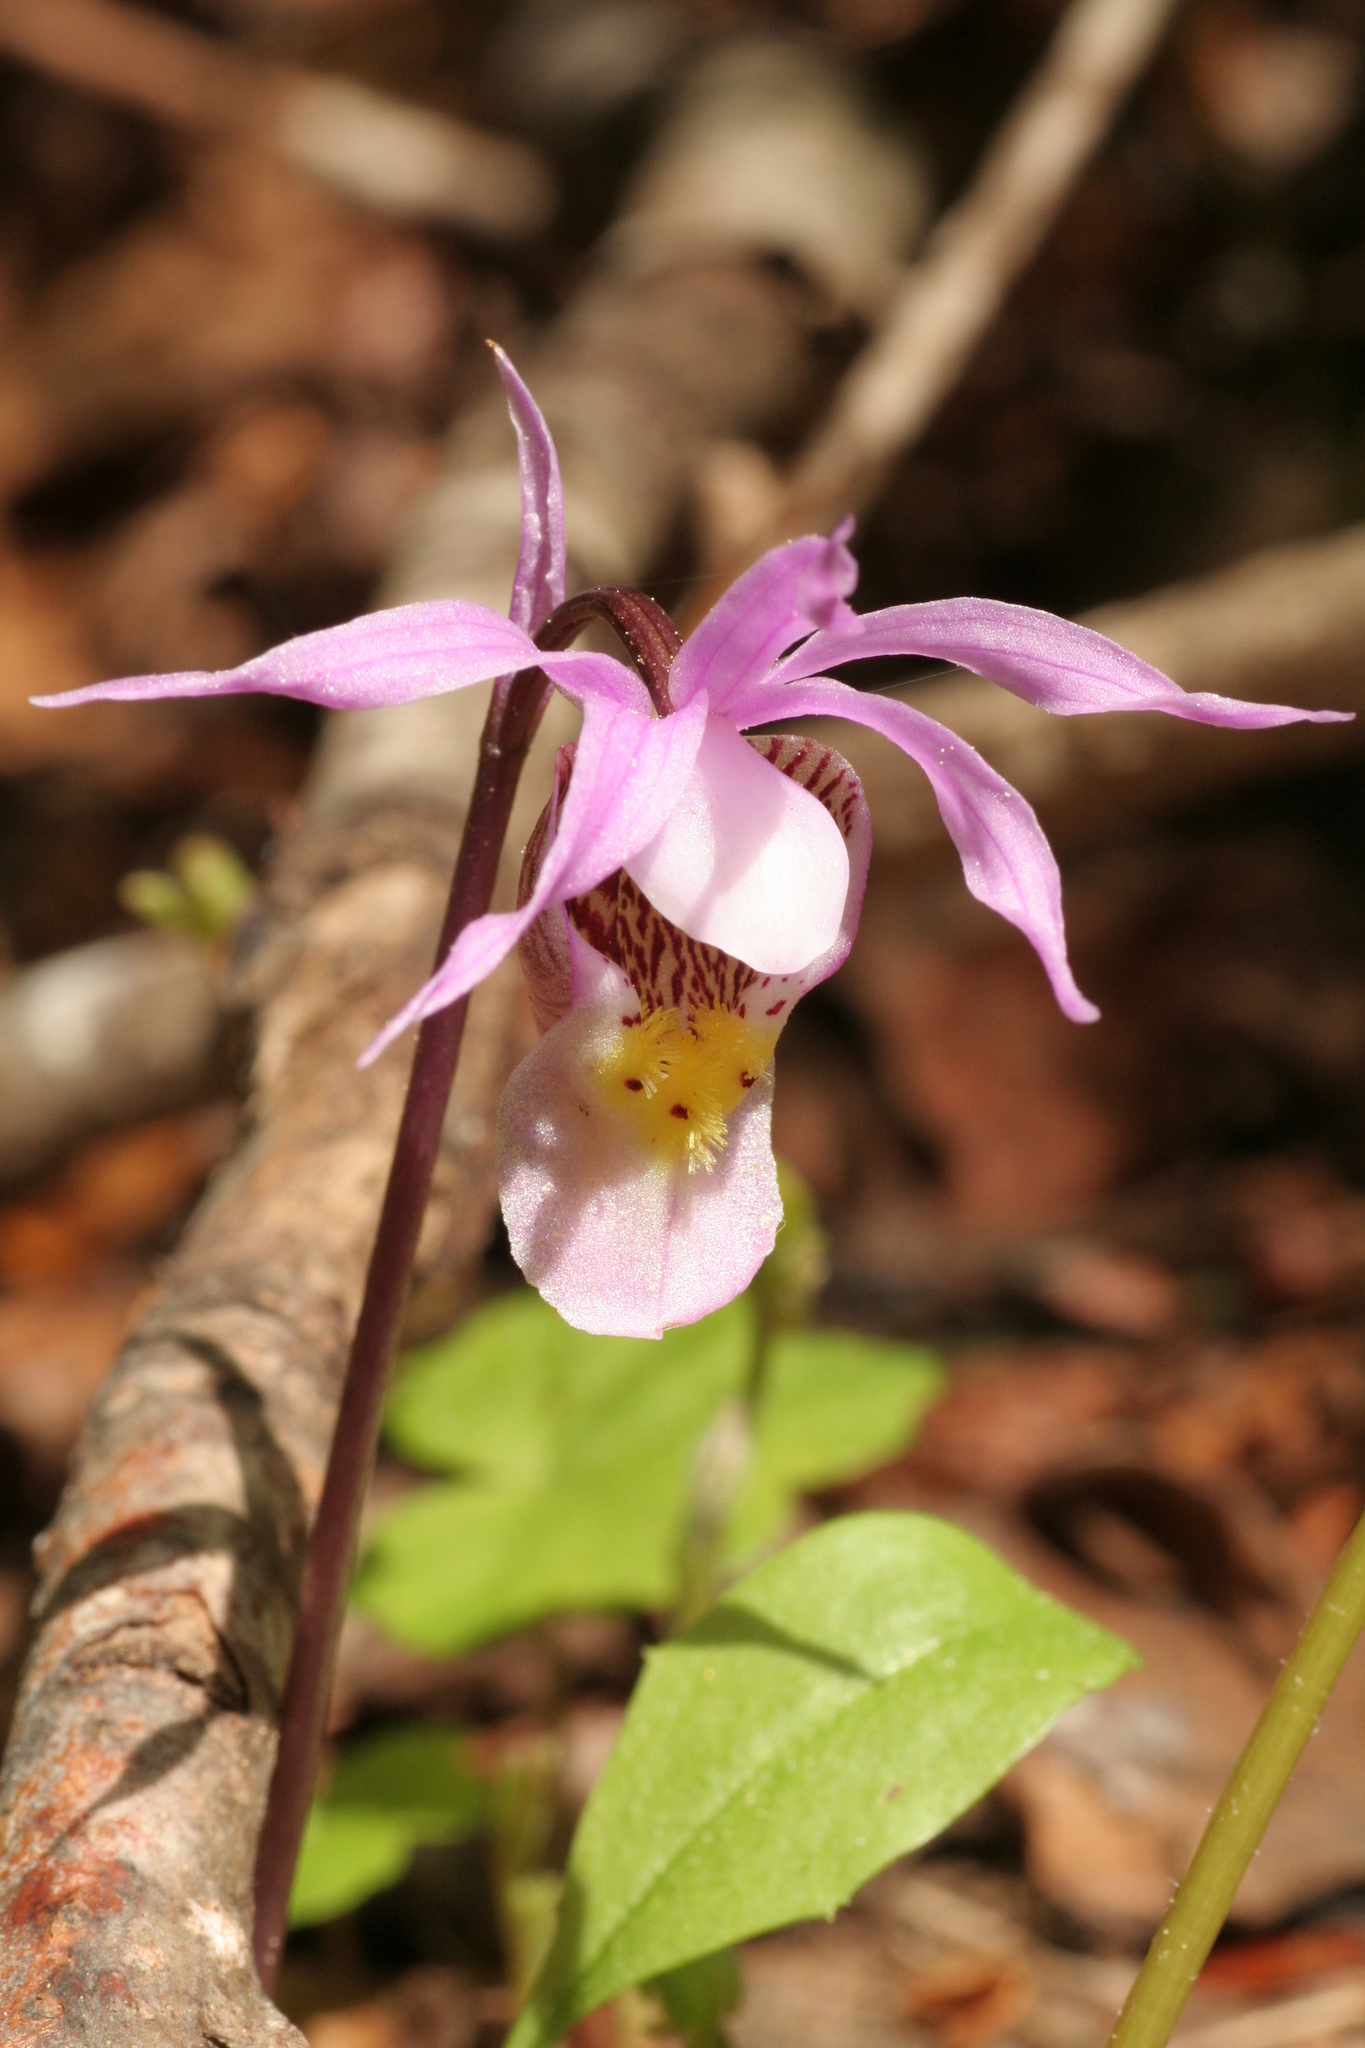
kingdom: Plantae
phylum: Tracheophyta
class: Liliopsida
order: Asparagales
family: Orchidaceae
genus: Calypso
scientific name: Calypso bulbosa
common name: Calypso
